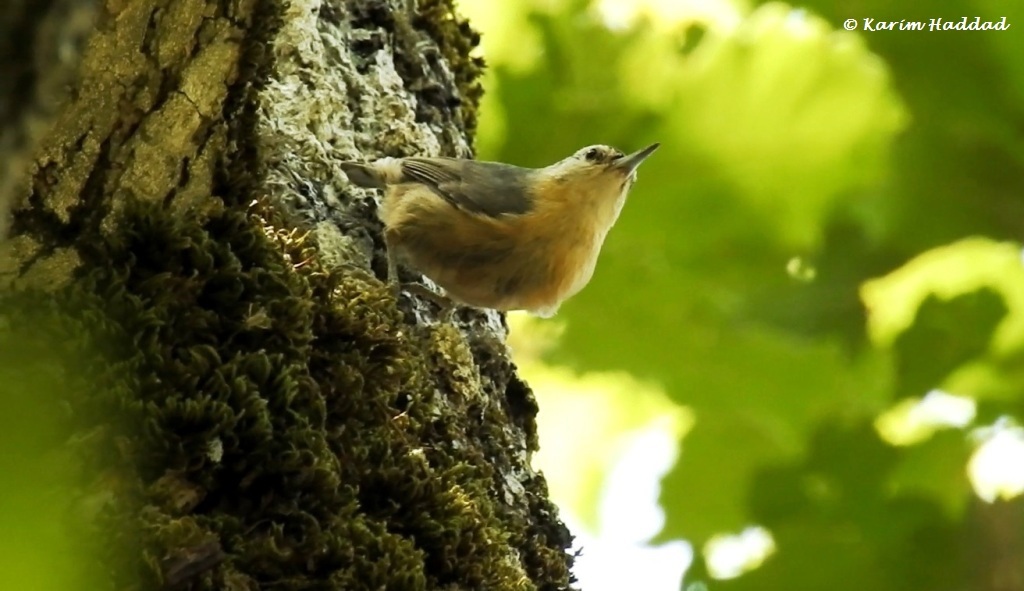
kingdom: Animalia
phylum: Chordata
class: Aves
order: Passeriformes
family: Sittidae
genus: Sitta
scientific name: Sitta ledanti
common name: Algerian nuthatch
